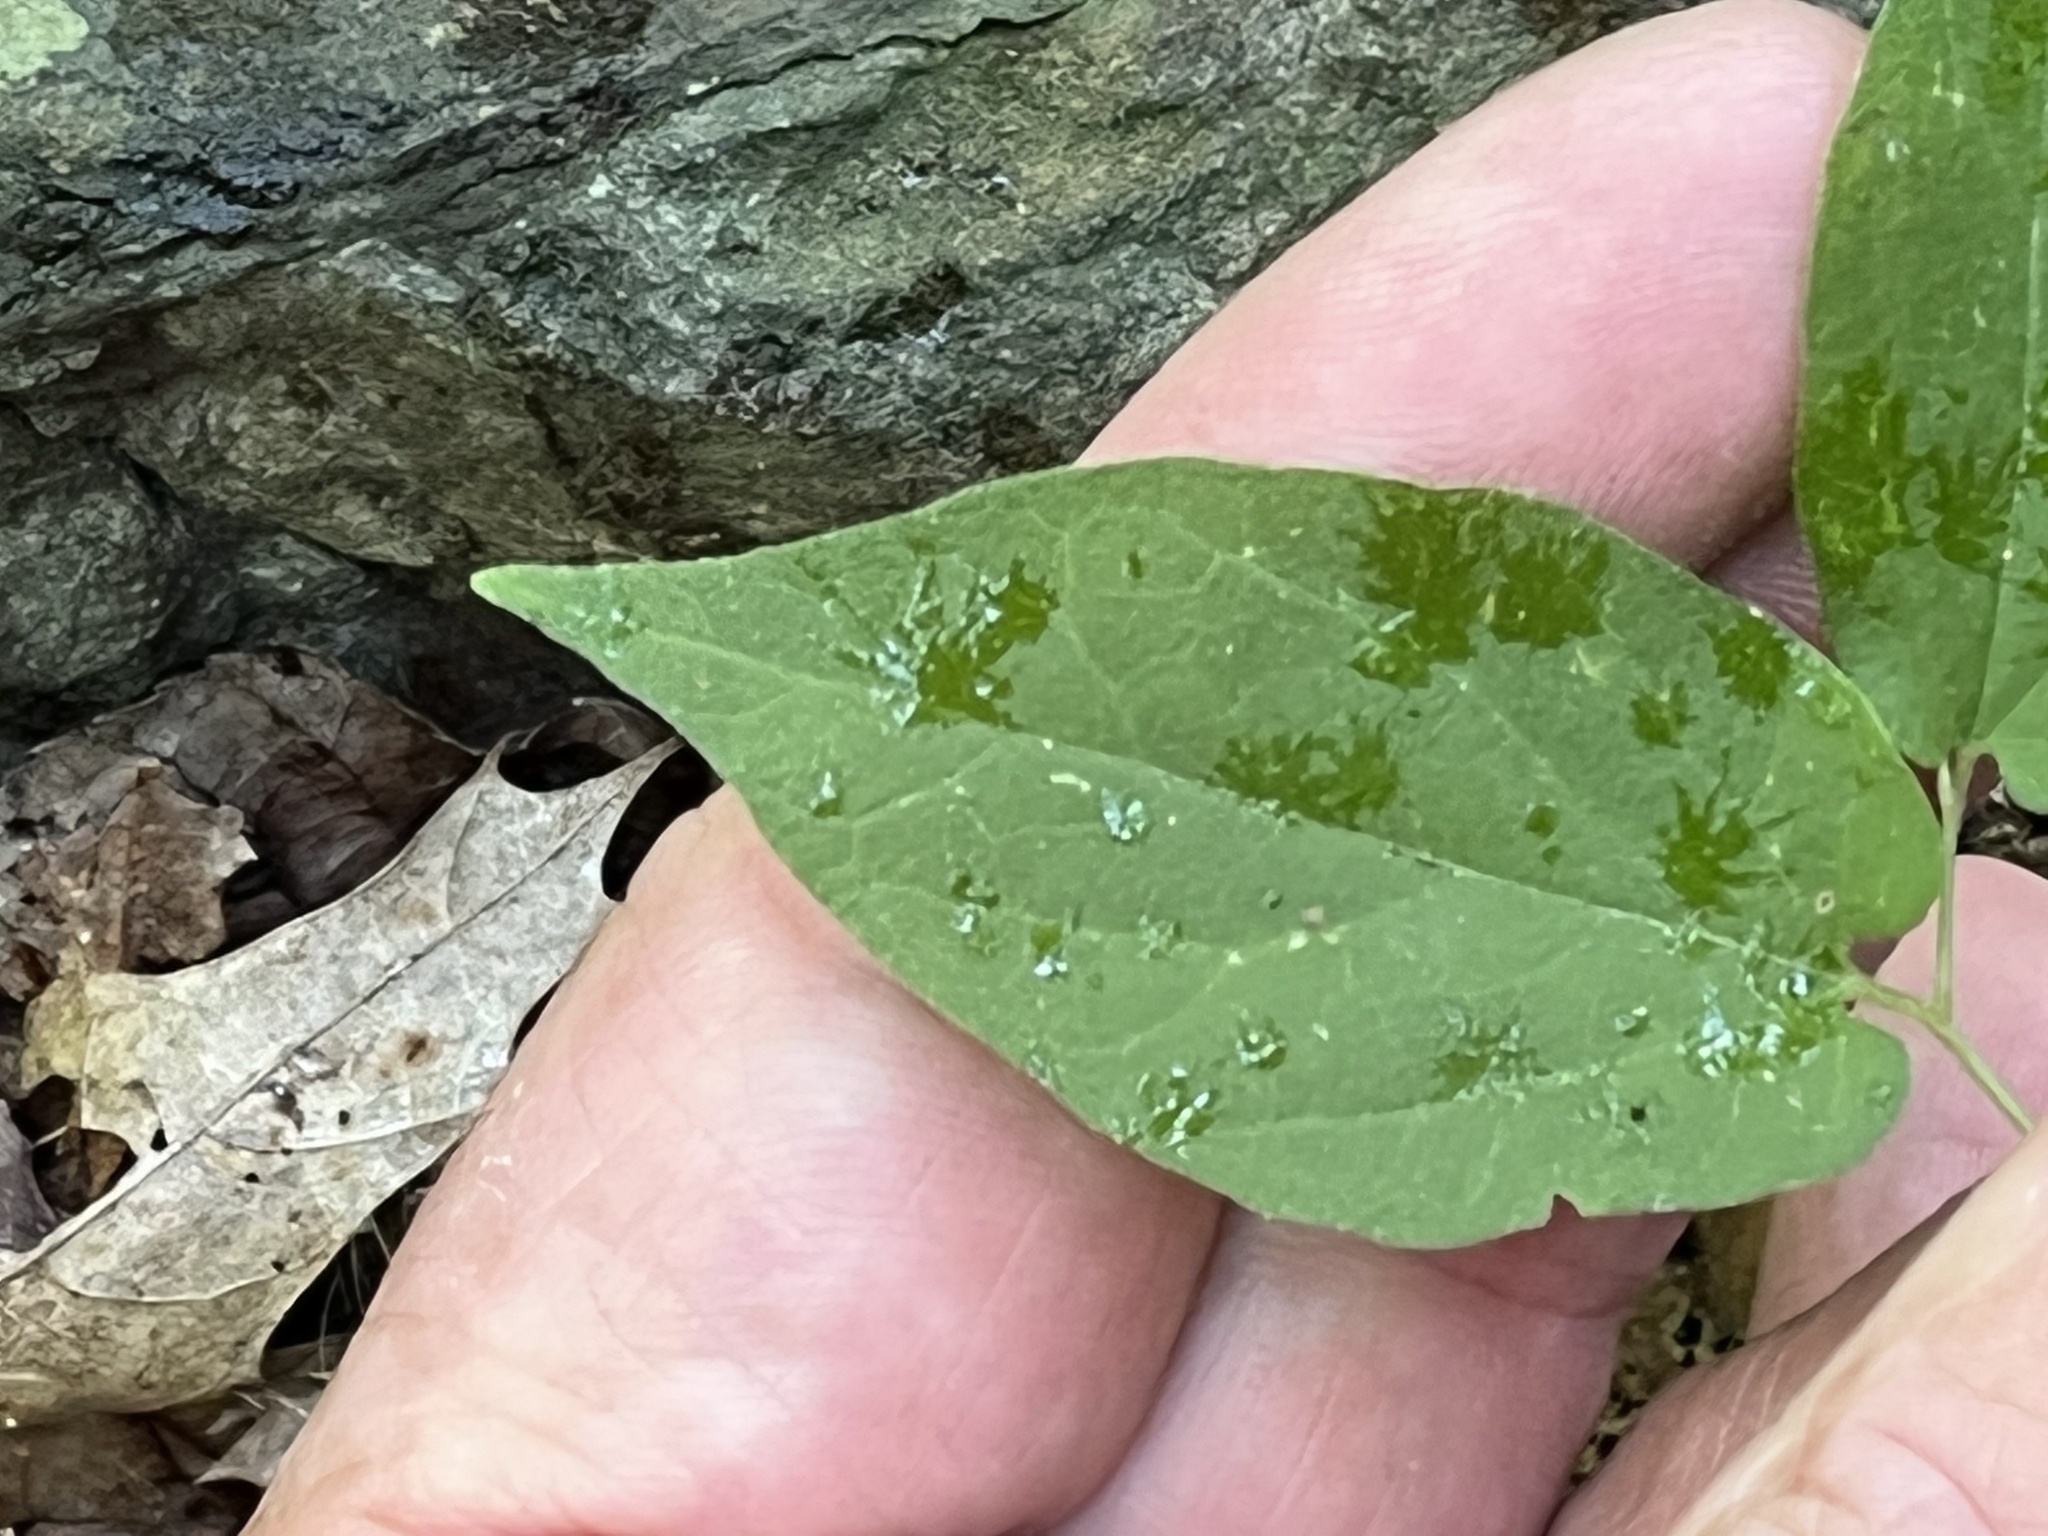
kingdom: Plantae
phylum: Tracheophyta
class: Magnoliopsida
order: Piperales
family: Aristolochiaceae
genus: Endodeca
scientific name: Endodeca serpentaria
